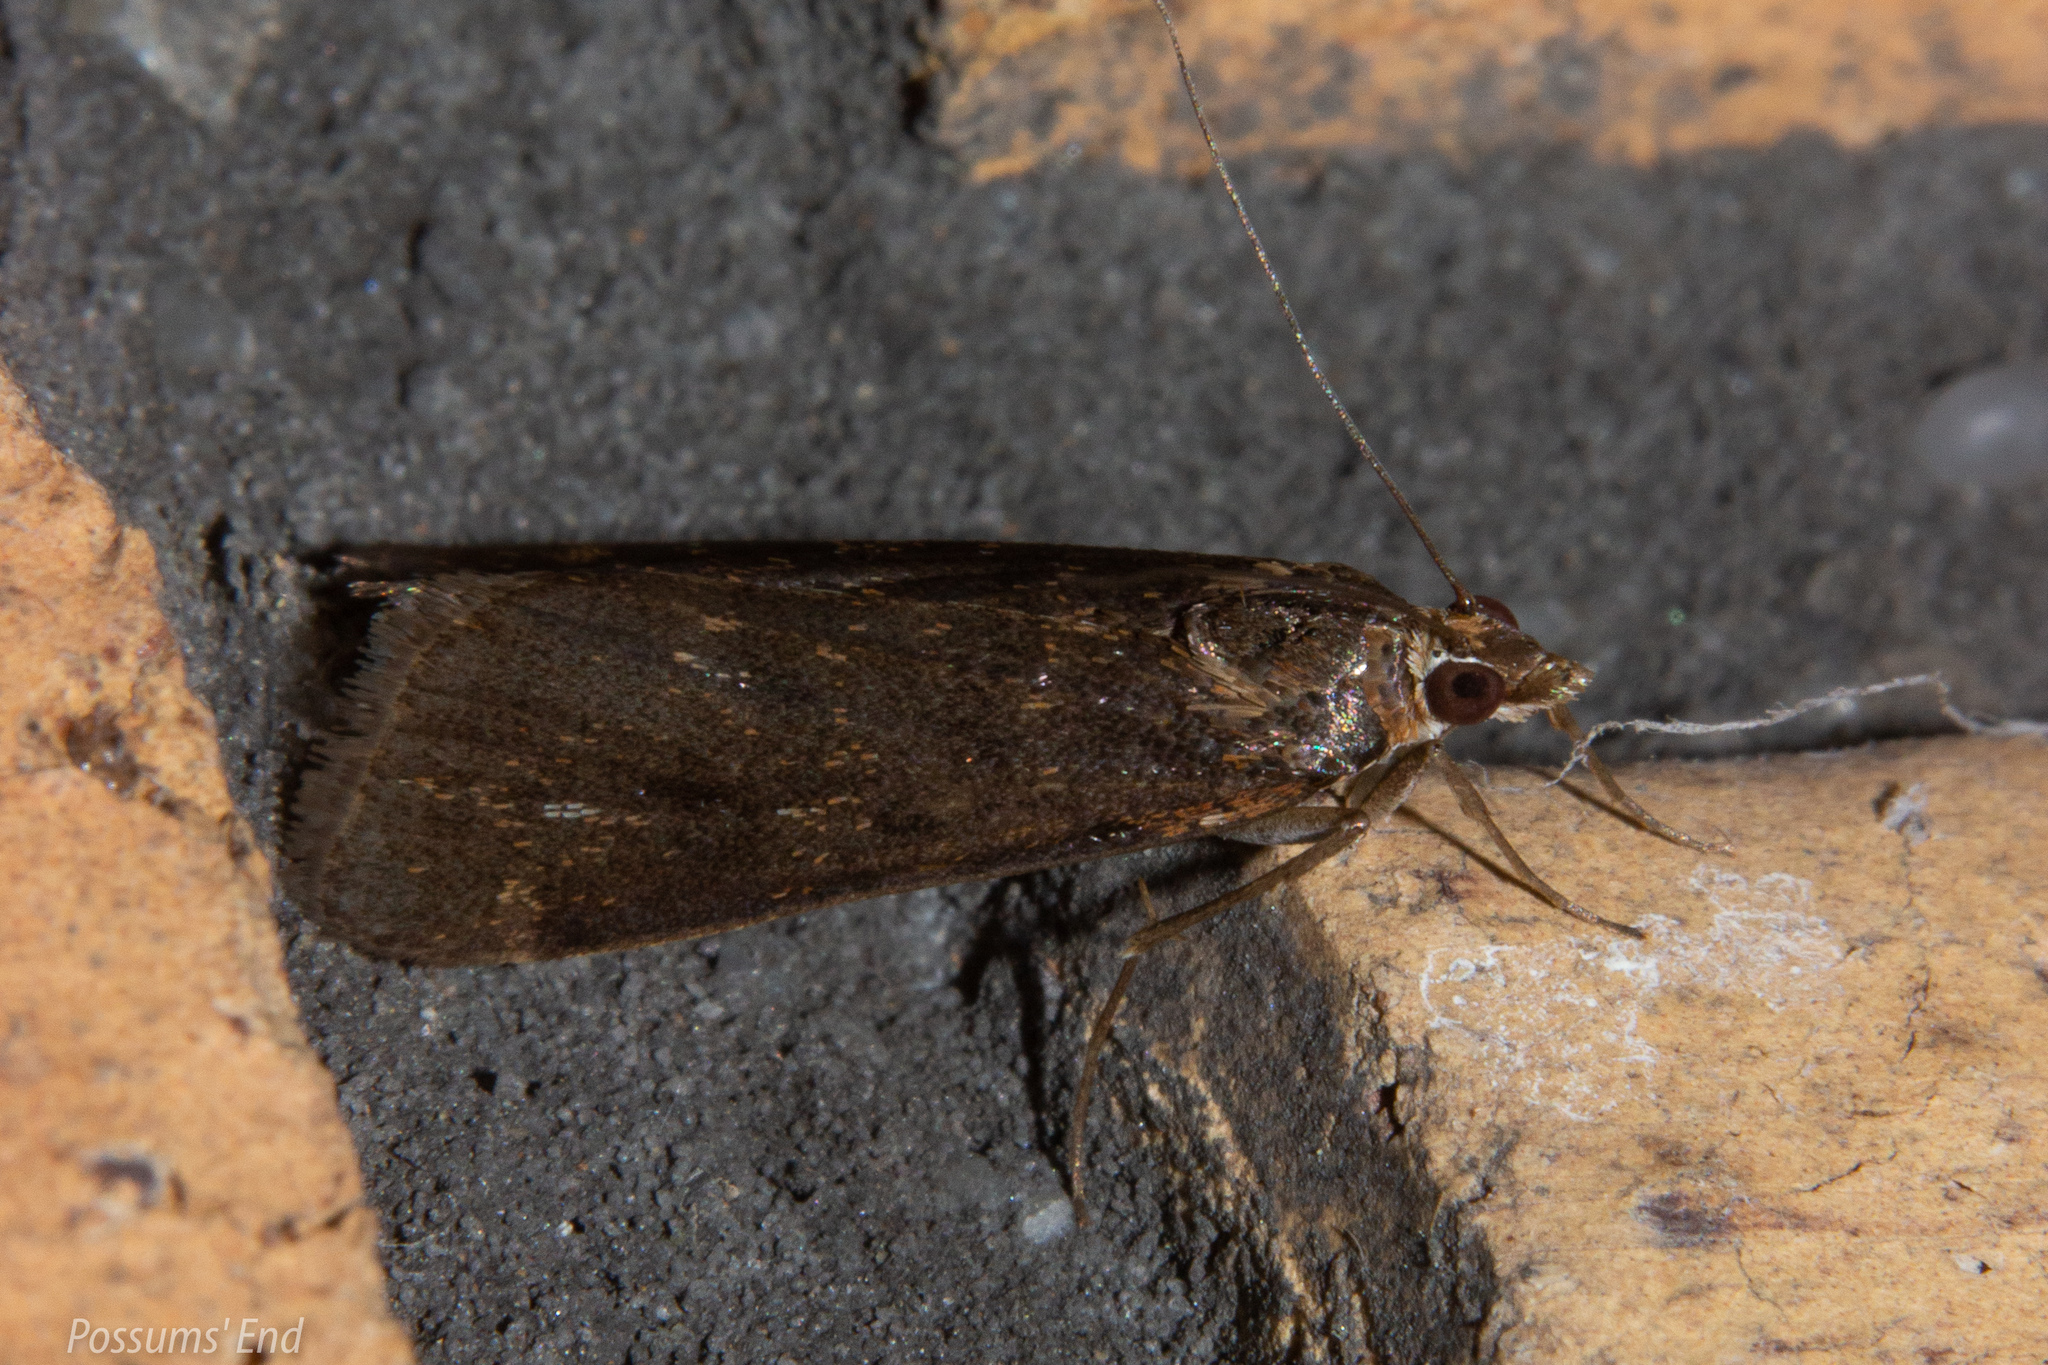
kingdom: Animalia
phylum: Arthropoda
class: Insecta
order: Lepidoptera
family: Crambidae
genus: Achyra
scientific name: Achyra affinitalis
